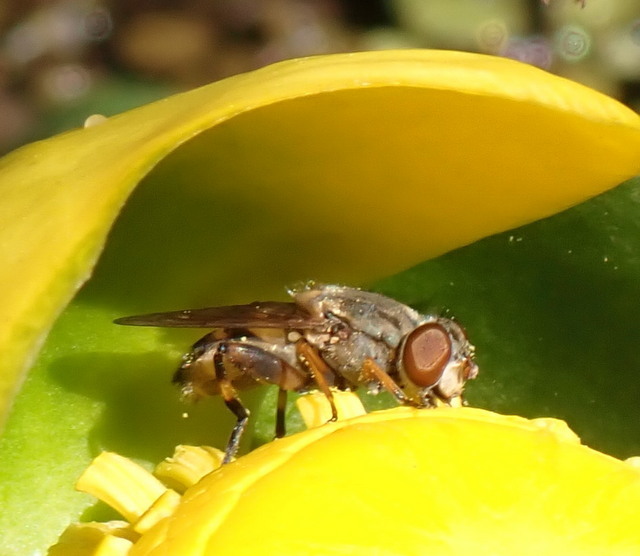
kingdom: Animalia
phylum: Arthropoda
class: Insecta
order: Diptera
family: Syrphidae
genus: Parhelophilus
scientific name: Parhelophilus divisus
